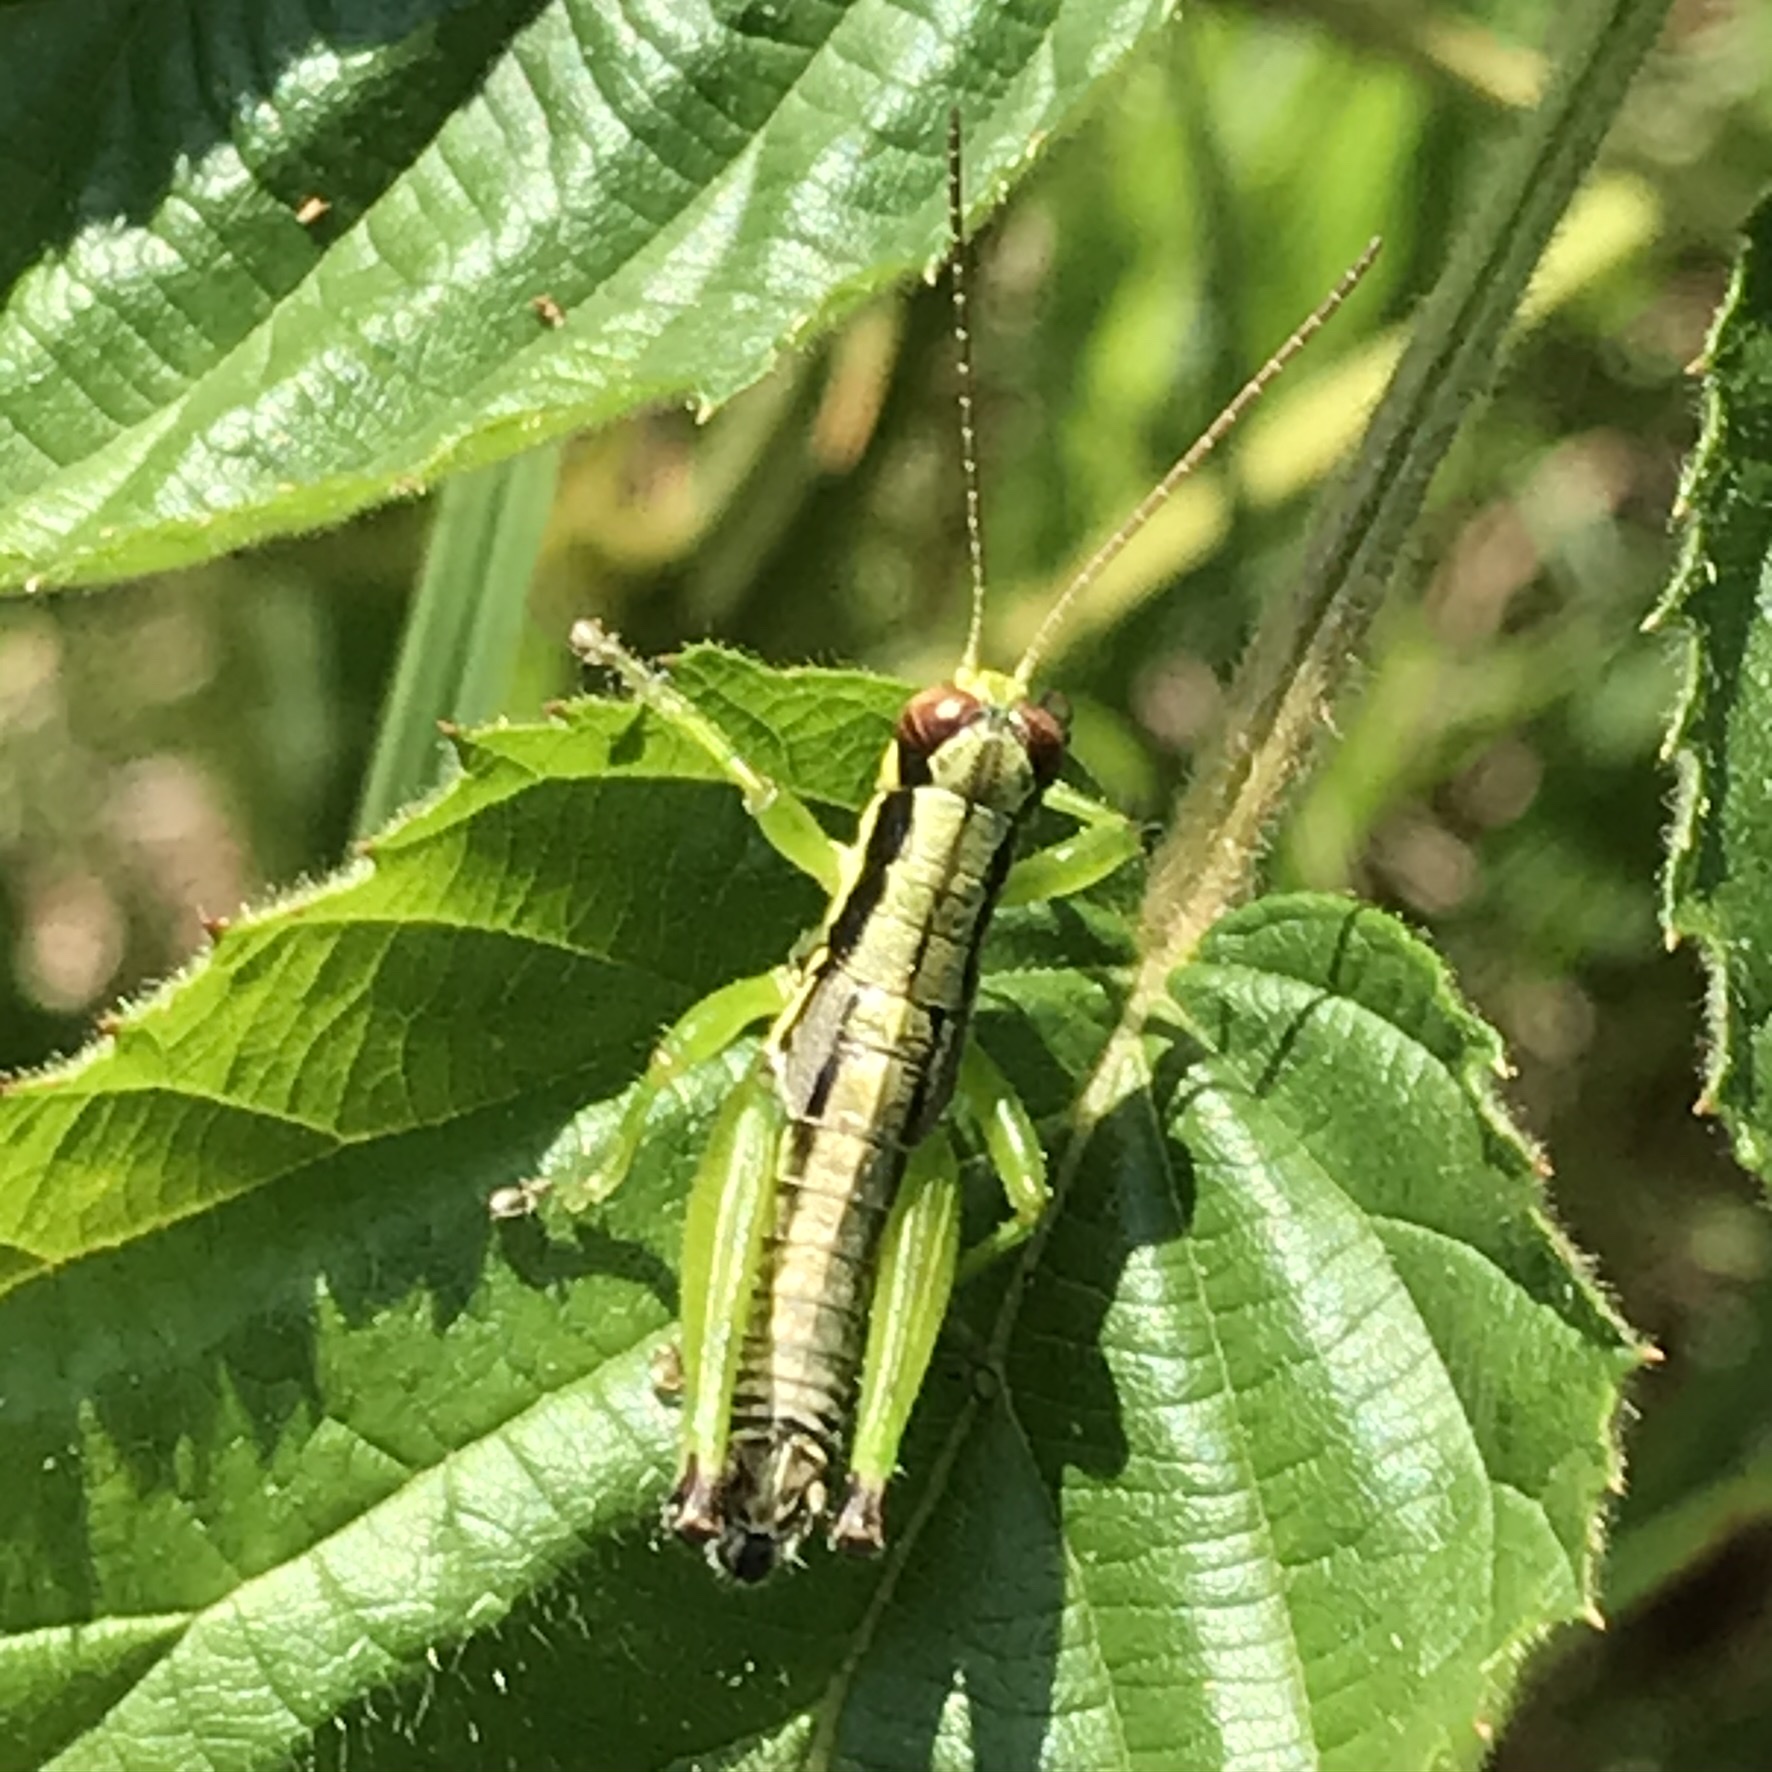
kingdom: Animalia
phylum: Arthropoda
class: Insecta
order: Orthoptera
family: Acrididae
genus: Melanoplus
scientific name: Melanoplus gracilis
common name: Graceful narrow-winged locust
